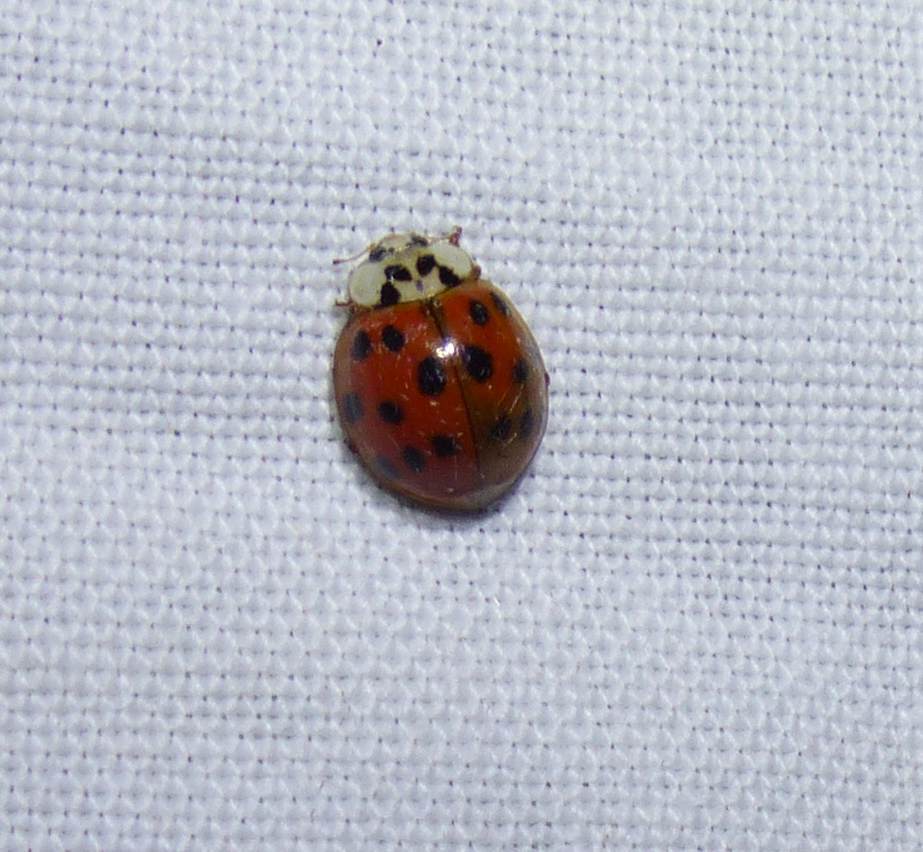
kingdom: Animalia
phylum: Arthropoda
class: Insecta
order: Coleoptera
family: Coccinellidae
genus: Harmonia
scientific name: Harmonia axyridis
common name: Harlequin ladybird
